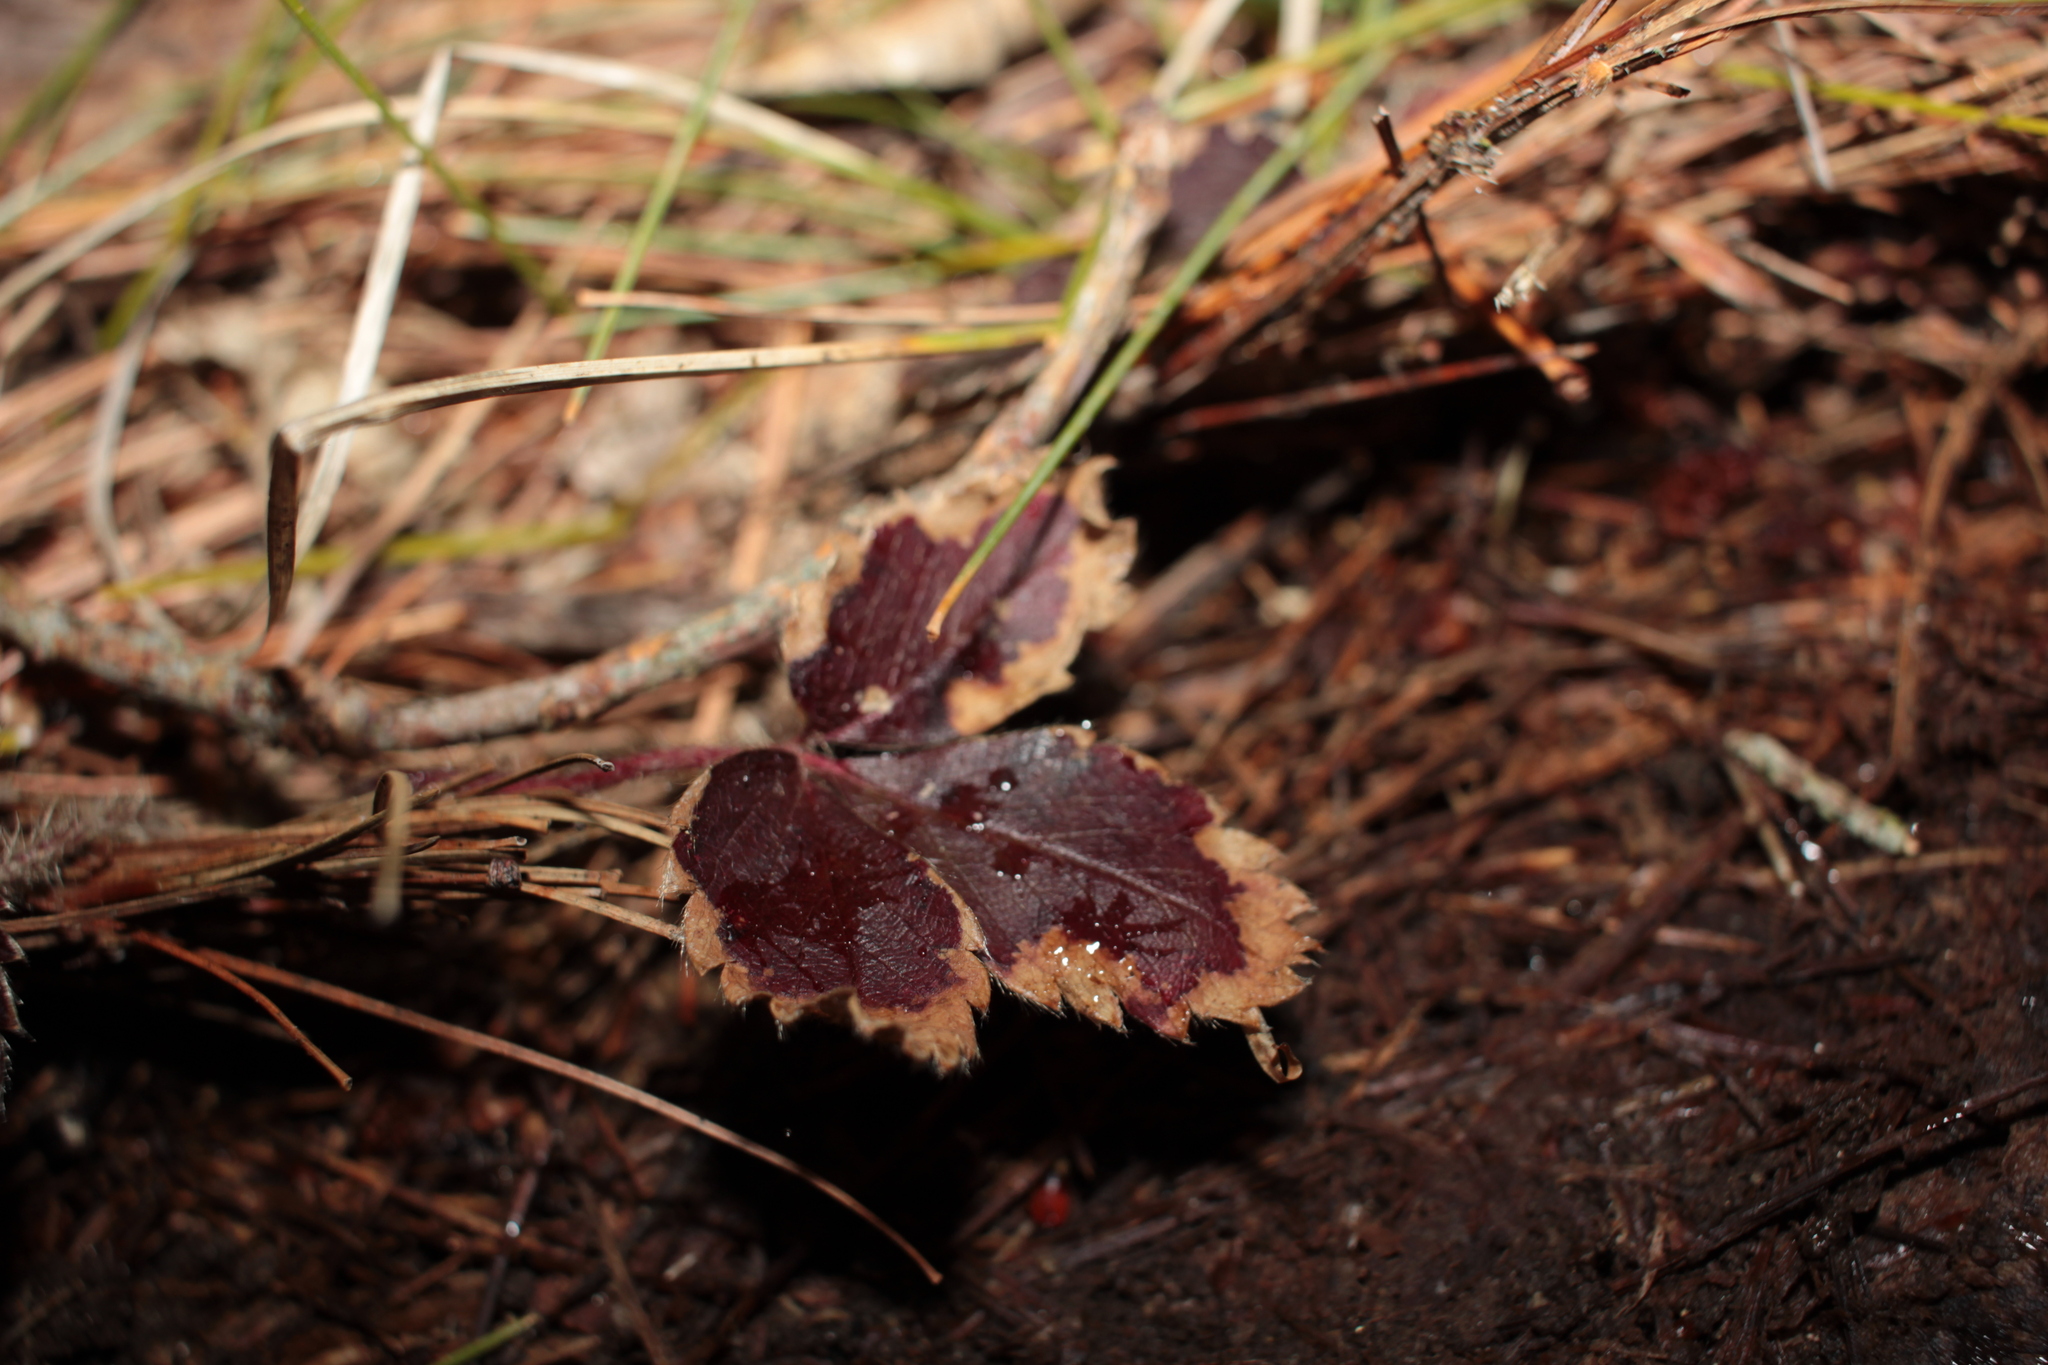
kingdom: Plantae
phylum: Tracheophyta
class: Magnoliopsida
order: Rosales
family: Rosaceae
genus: Fragaria
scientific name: Fragaria virginiana
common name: Thickleaved wild strawberry
